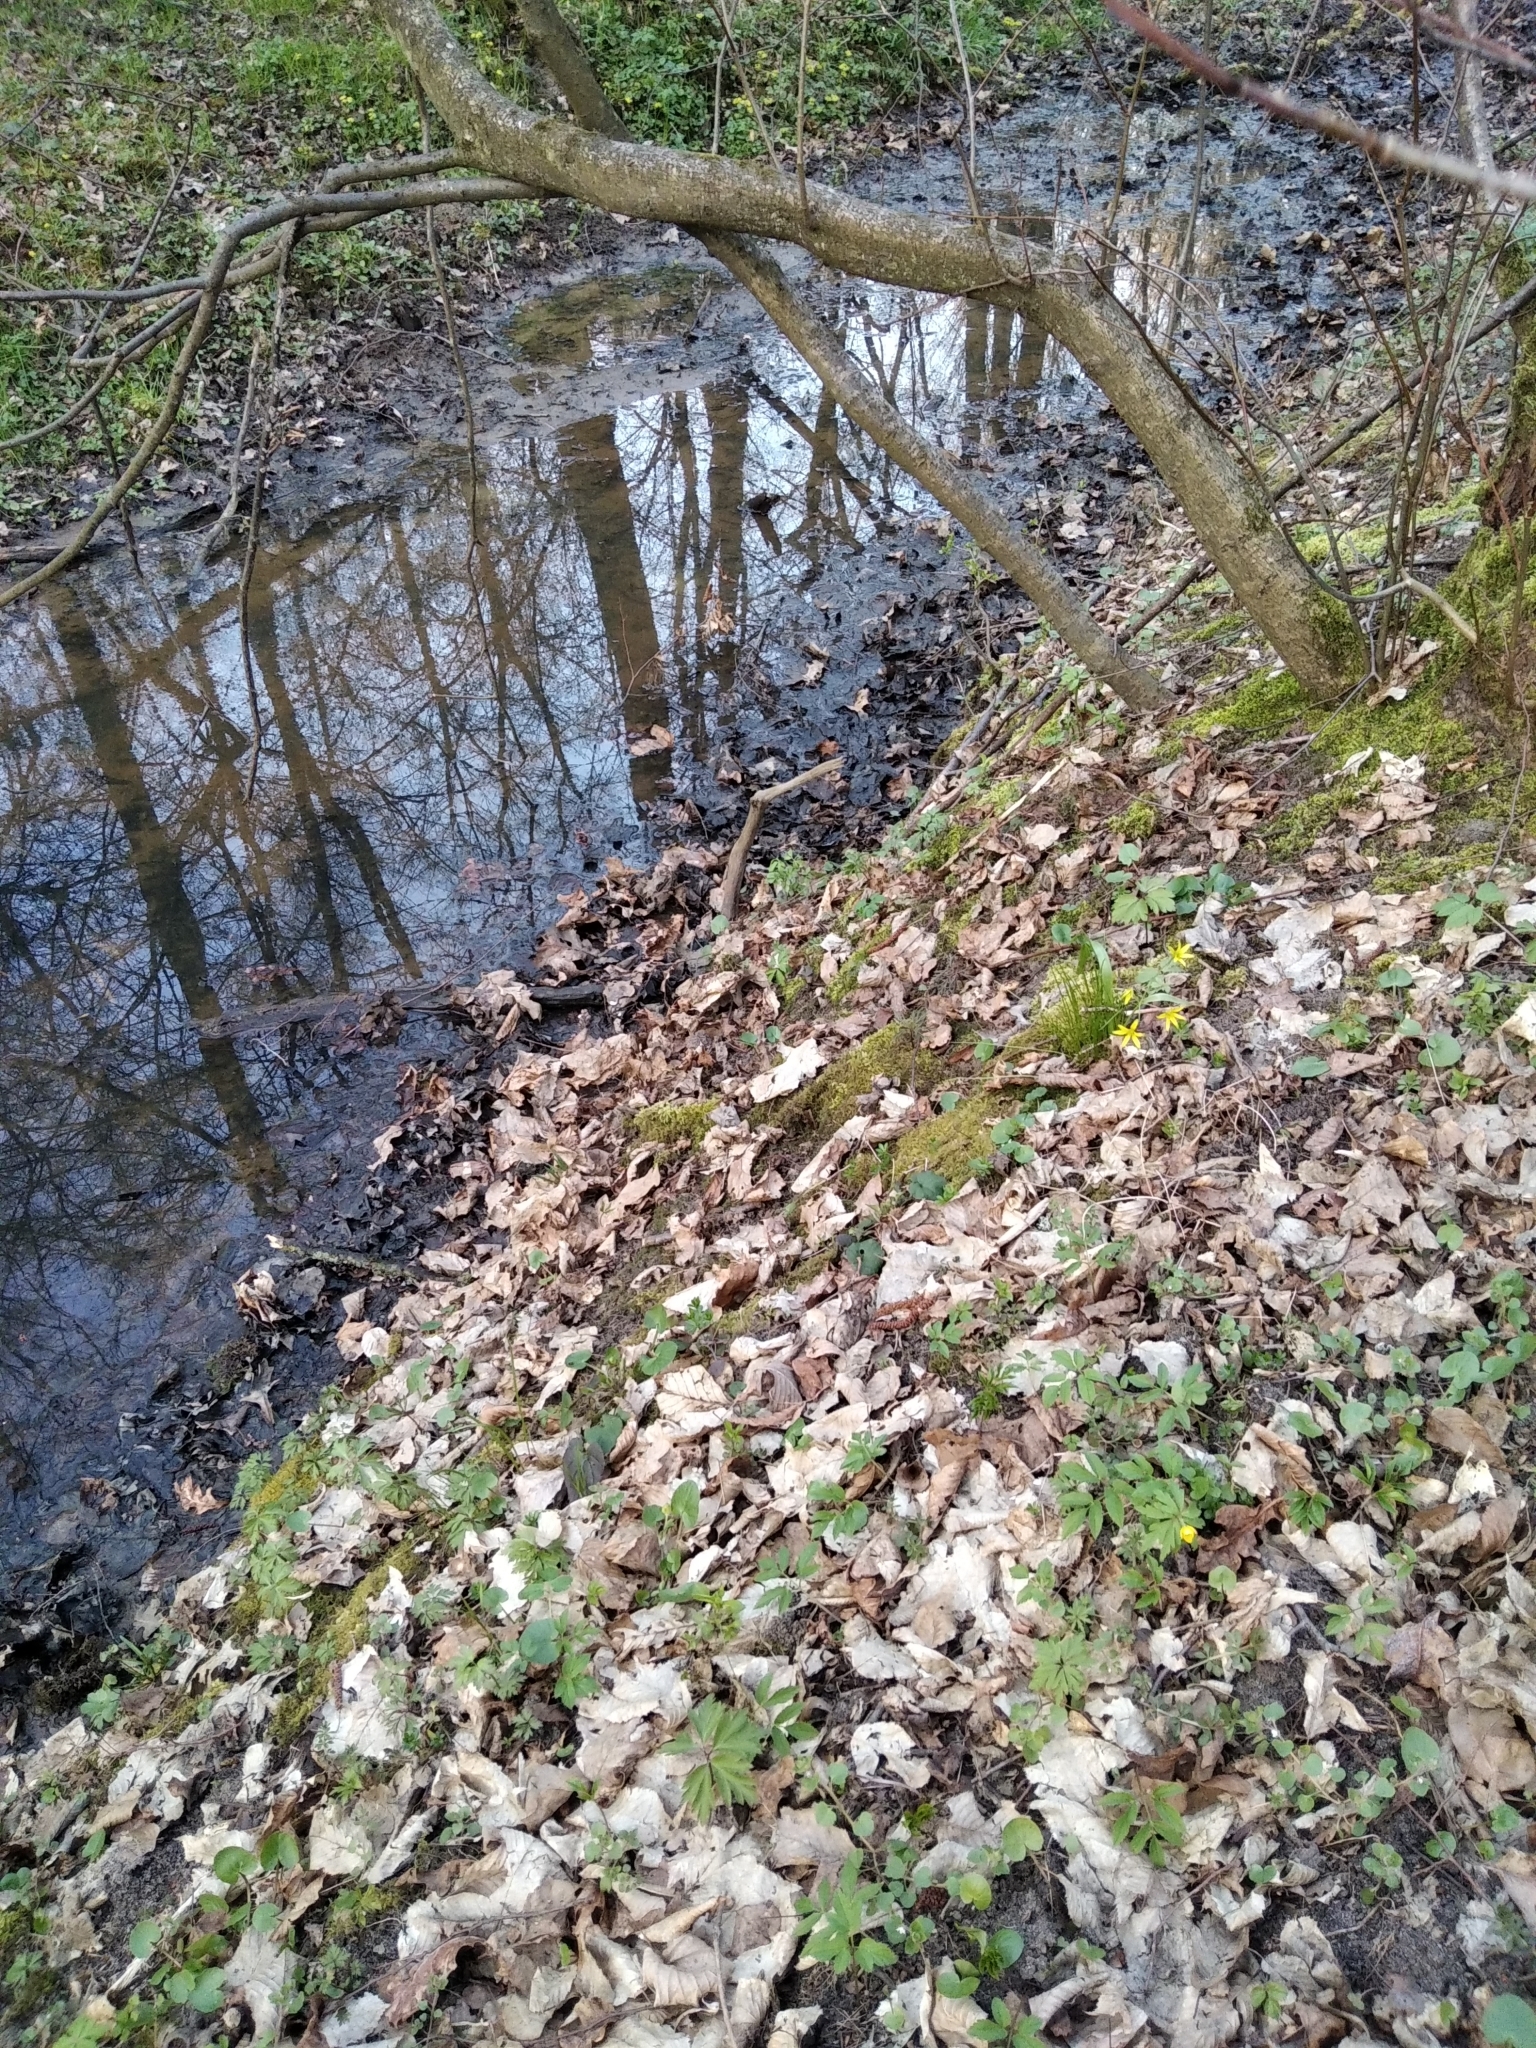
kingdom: Plantae
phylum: Tracheophyta
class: Liliopsida
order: Liliales
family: Liliaceae
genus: Gagea
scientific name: Gagea lutea
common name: Yellow star-of-bethlehem
